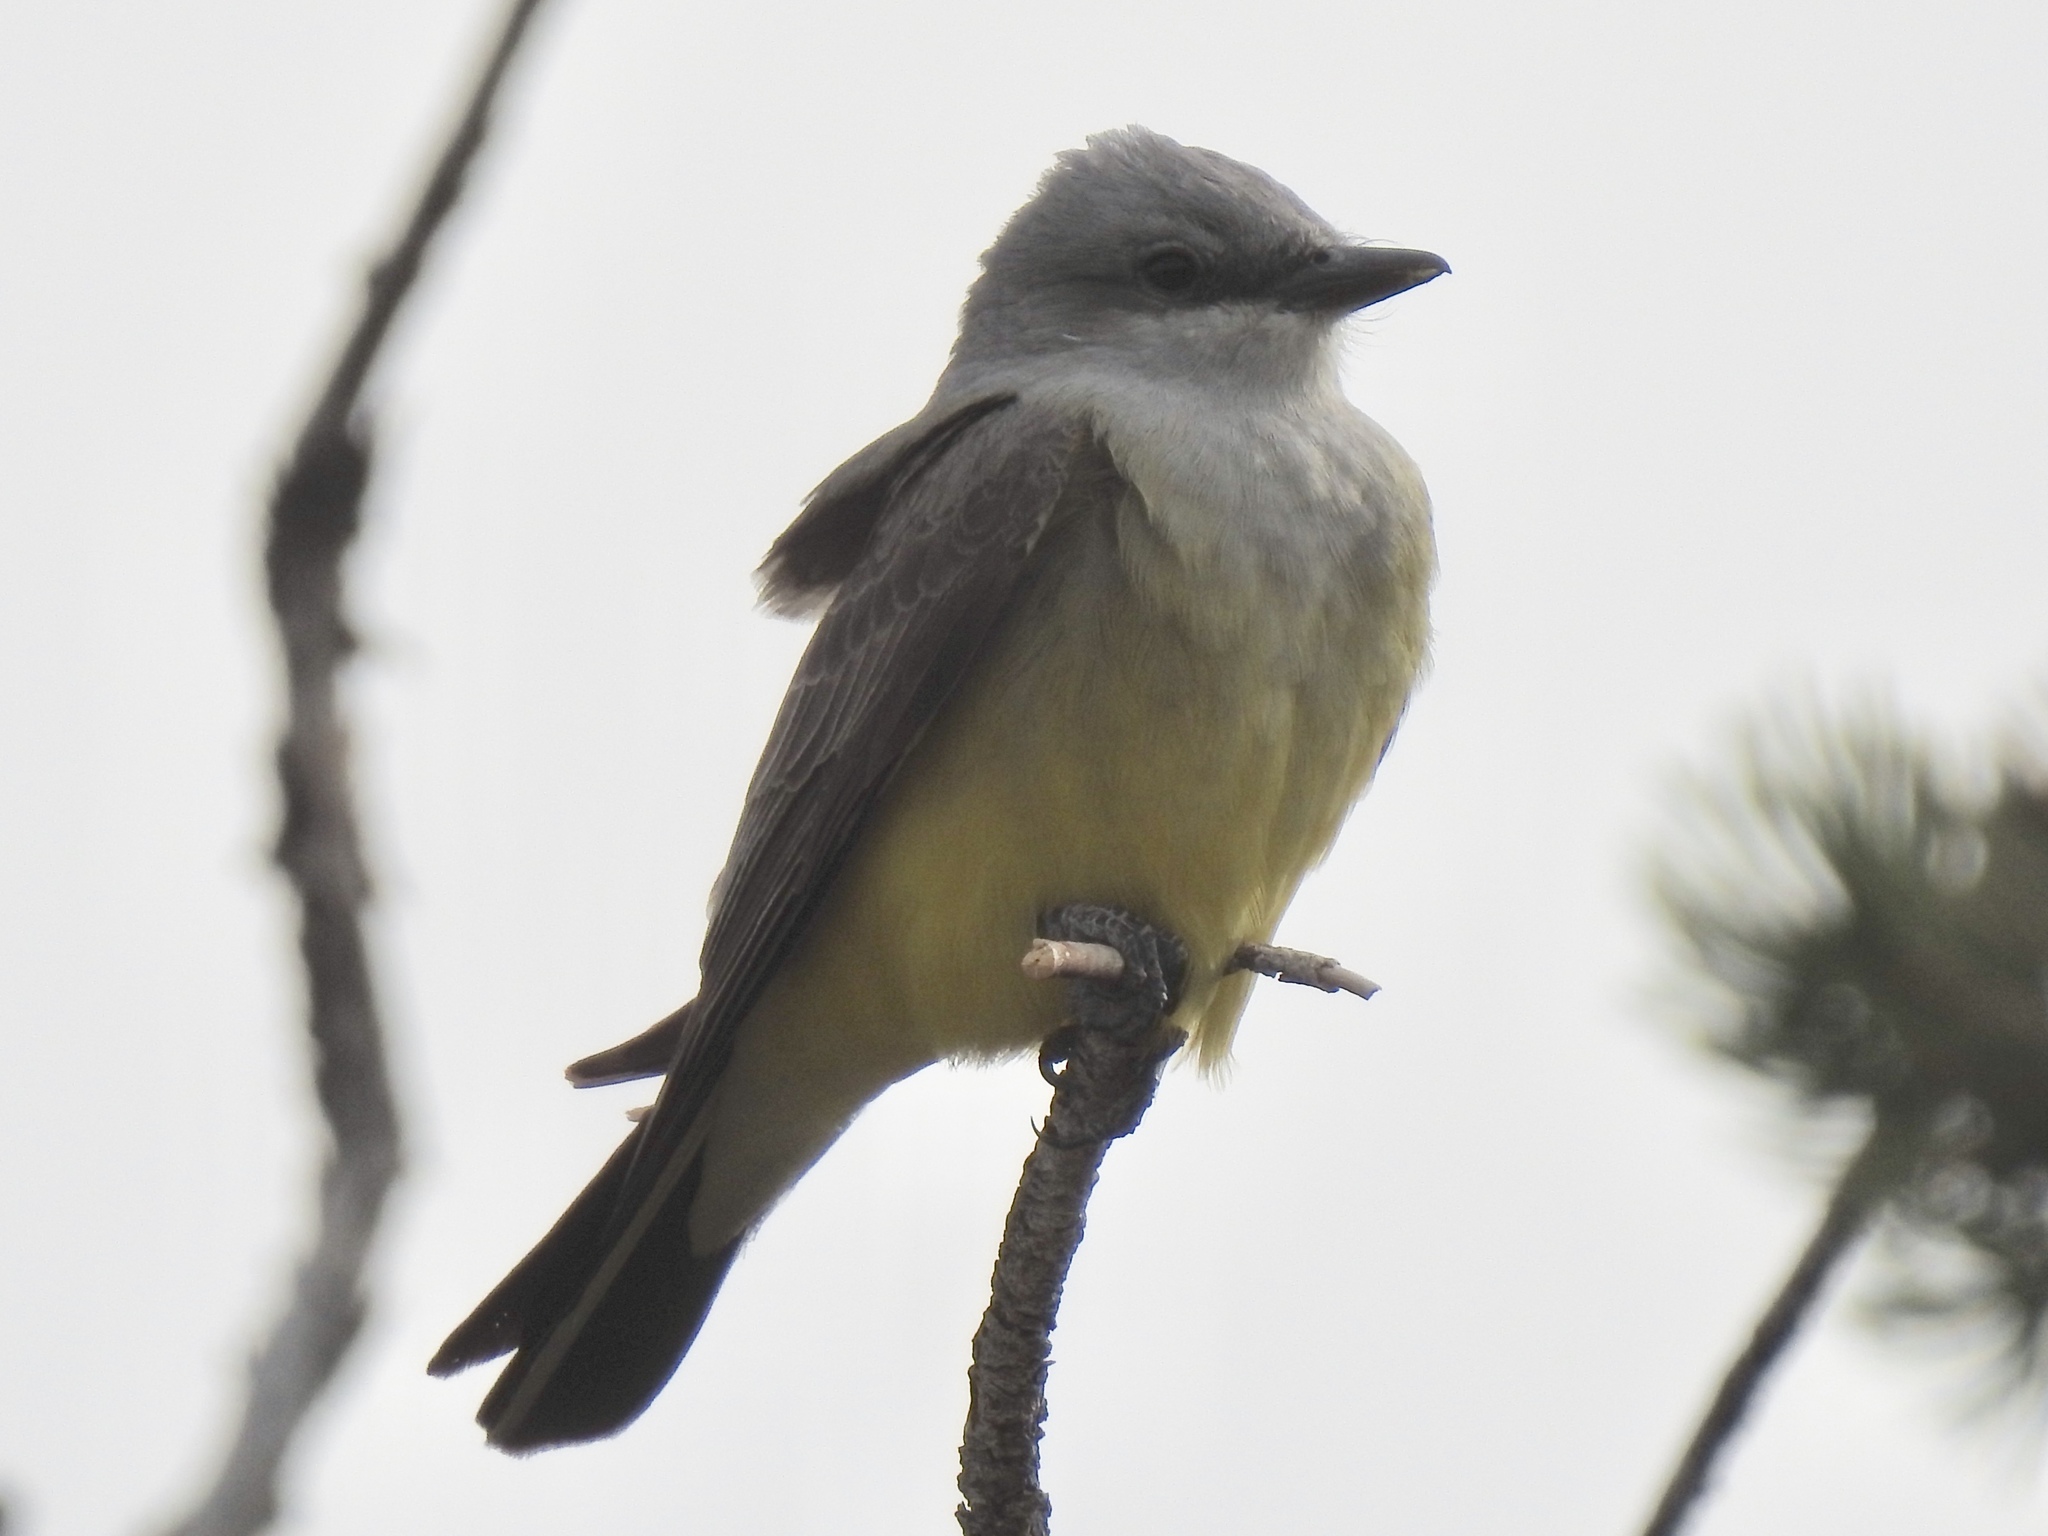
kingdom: Animalia
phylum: Chordata
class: Aves
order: Passeriformes
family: Tyrannidae
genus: Tyrannus
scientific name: Tyrannus verticalis
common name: Western kingbird
